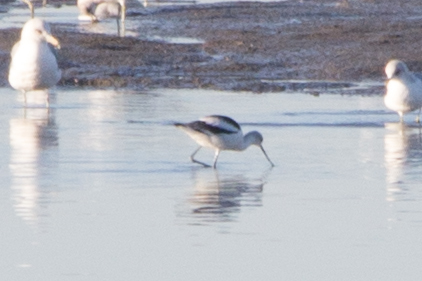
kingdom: Animalia
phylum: Chordata
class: Aves
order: Charadriiformes
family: Recurvirostridae
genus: Recurvirostra
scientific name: Recurvirostra americana
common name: American avocet
